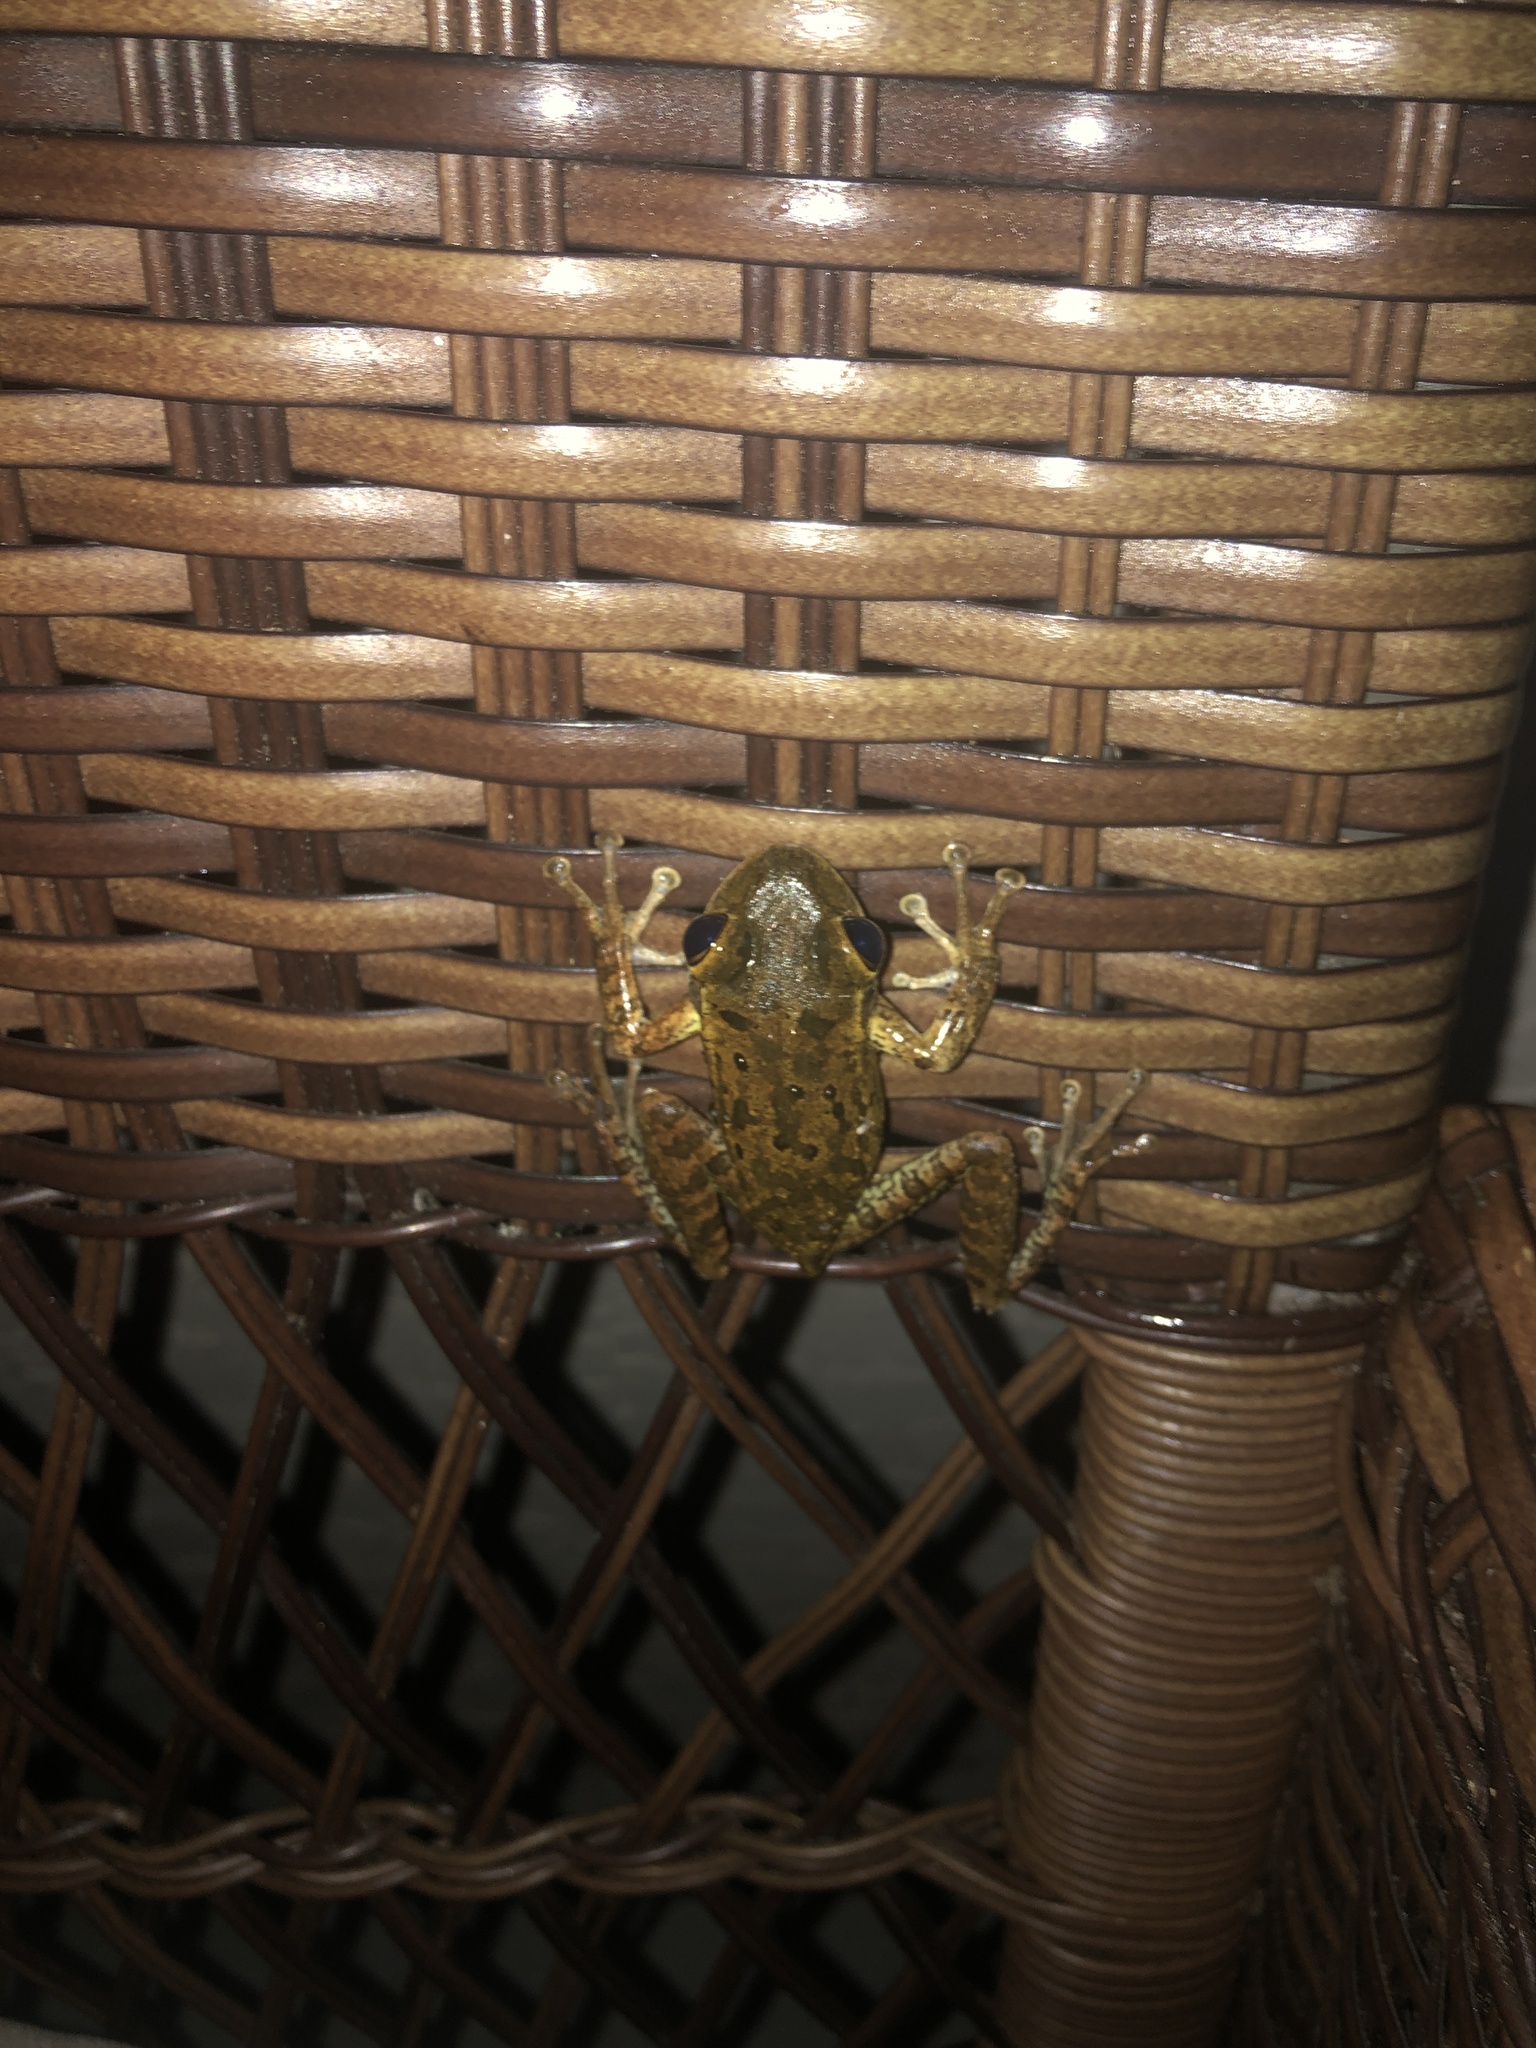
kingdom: Animalia
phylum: Chordata
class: Amphibia
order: Anura
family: Hylidae
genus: Osteopilus
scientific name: Osteopilus septentrionalis
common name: Cuban treefrog
